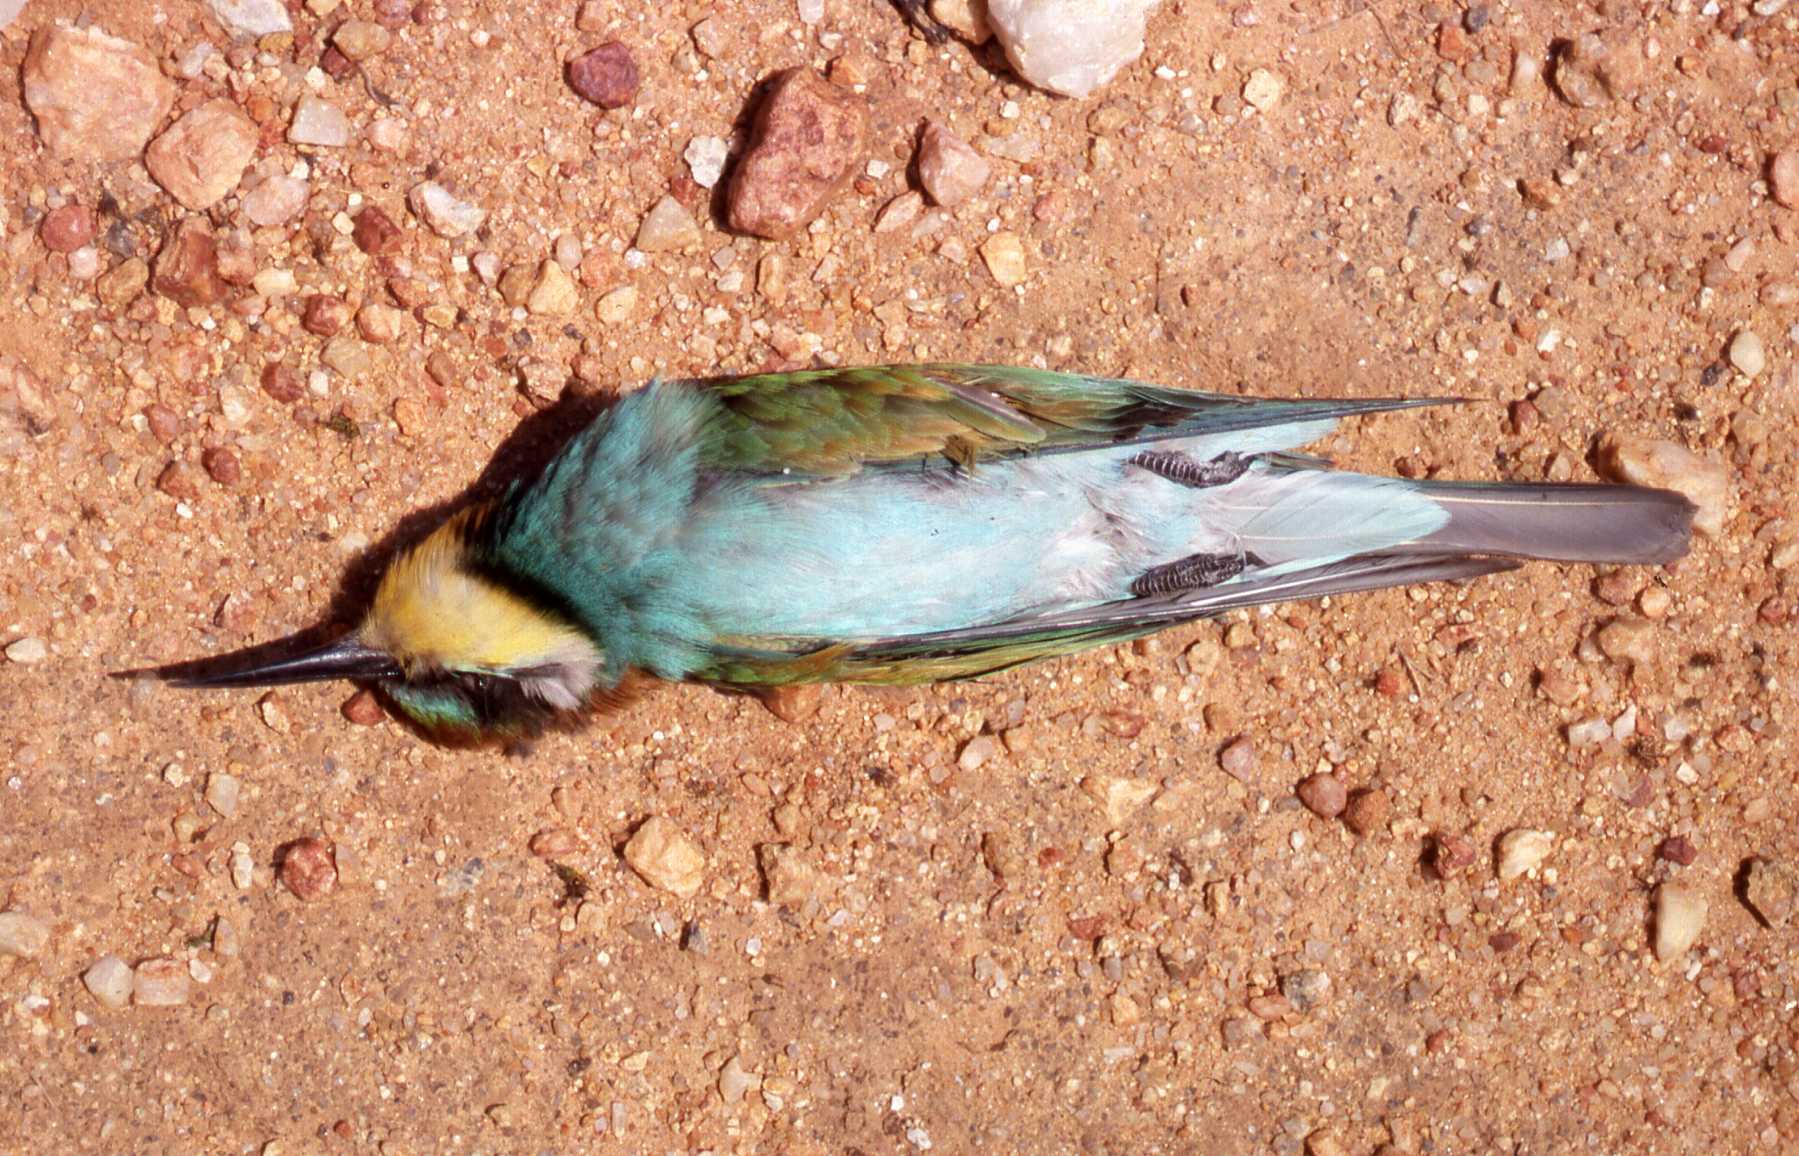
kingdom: Animalia
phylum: Chordata
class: Aves
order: Coraciiformes
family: Meropidae
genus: Merops
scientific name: Merops apiaster
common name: European bee-eater
